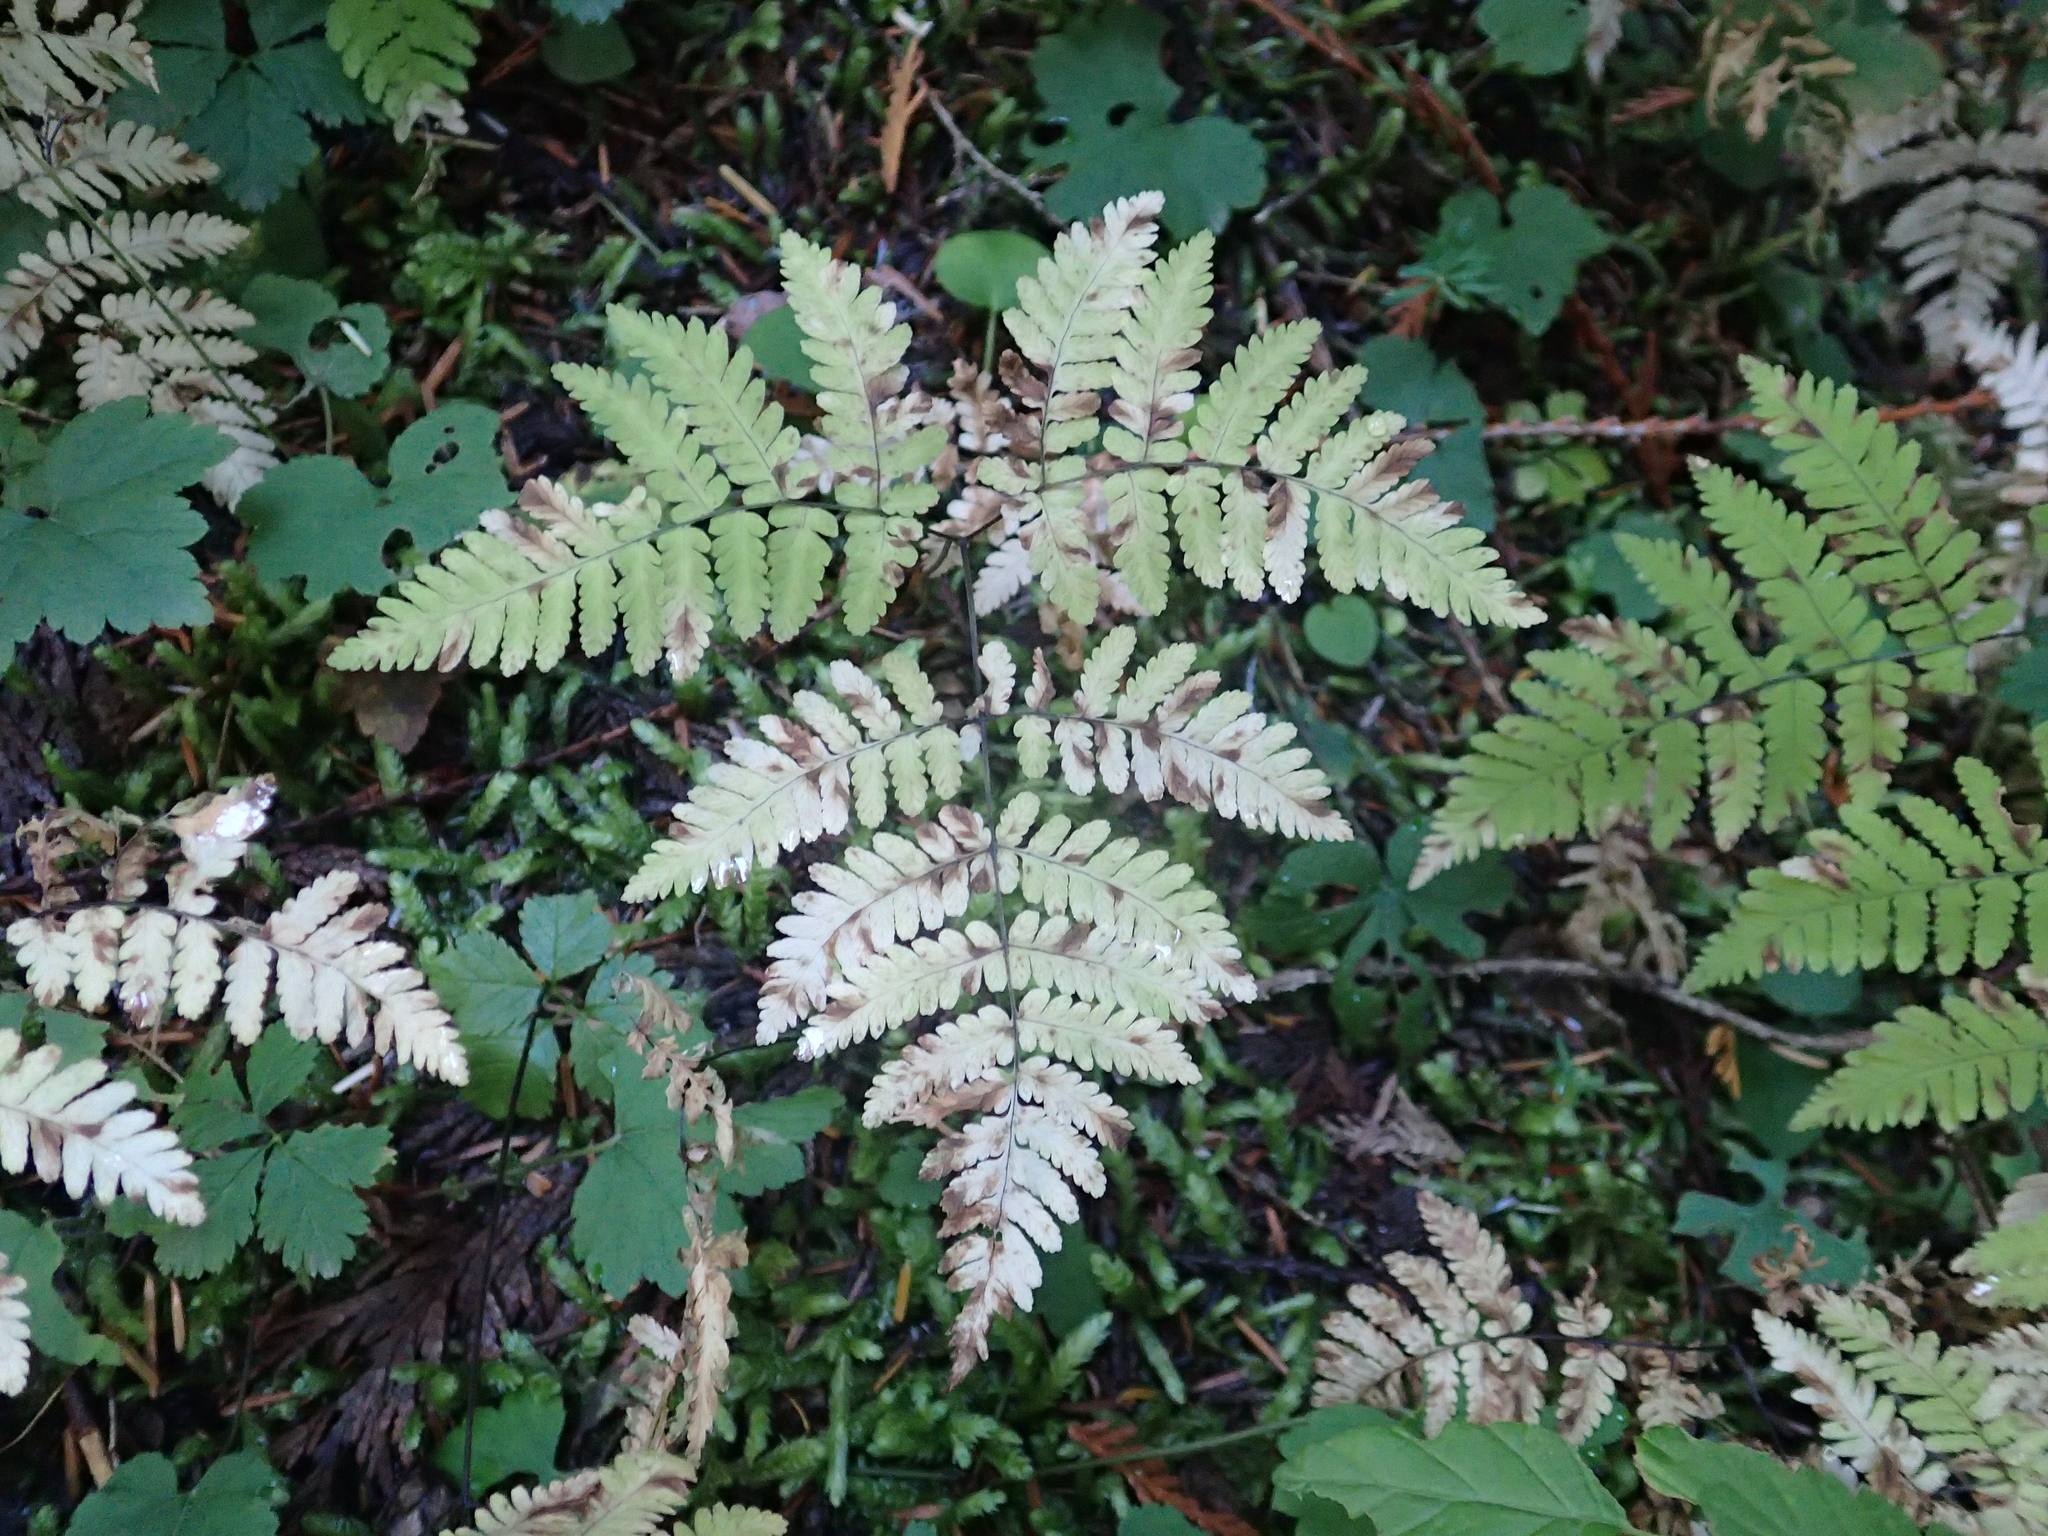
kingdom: Plantae
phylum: Tracheophyta
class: Polypodiopsida
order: Polypodiales
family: Cystopteridaceae
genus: Gymnocarpium
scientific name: Gymnocarpium disjunctum
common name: Western oak fern
